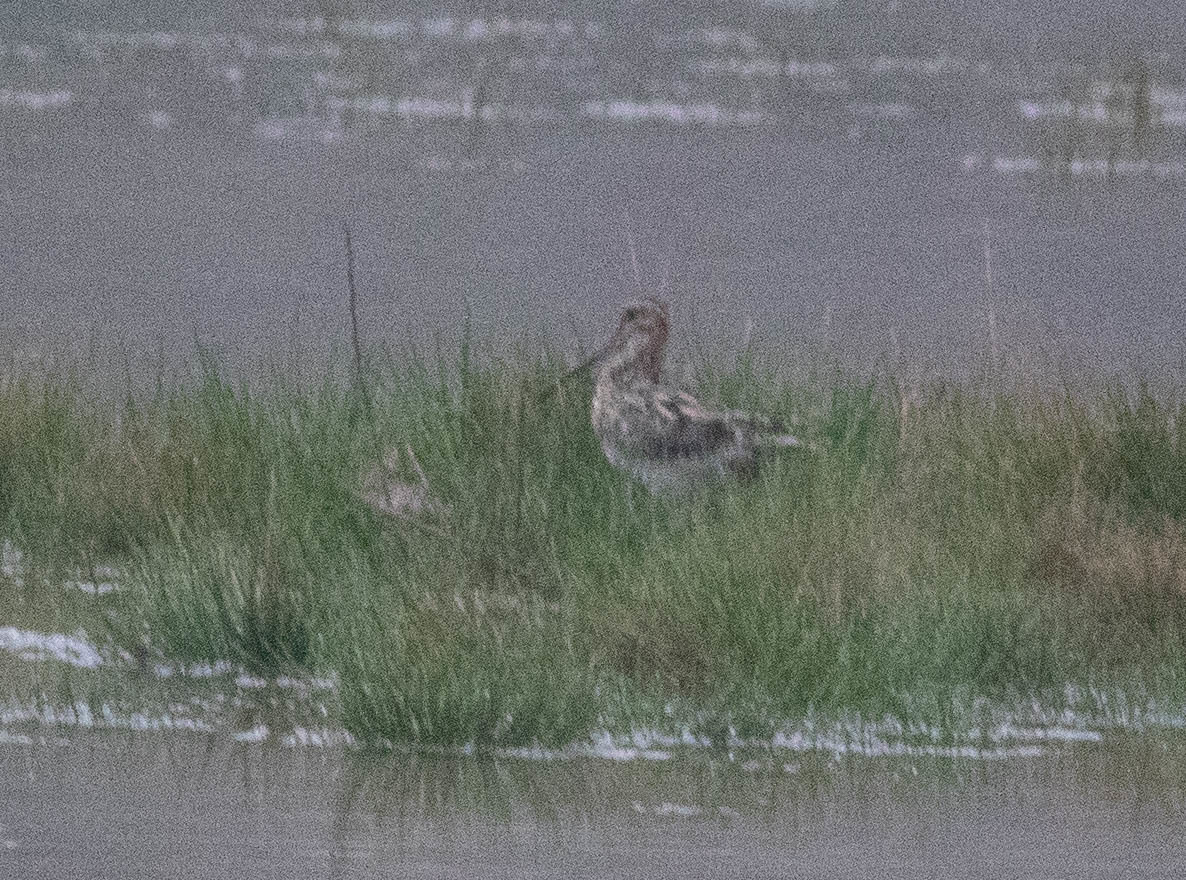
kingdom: Animalia
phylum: Chordata
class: Aves
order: Charadriiformes
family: Scolopacidae
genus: Gallinago
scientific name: Gallinago delicata
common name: Wilson's snipe
